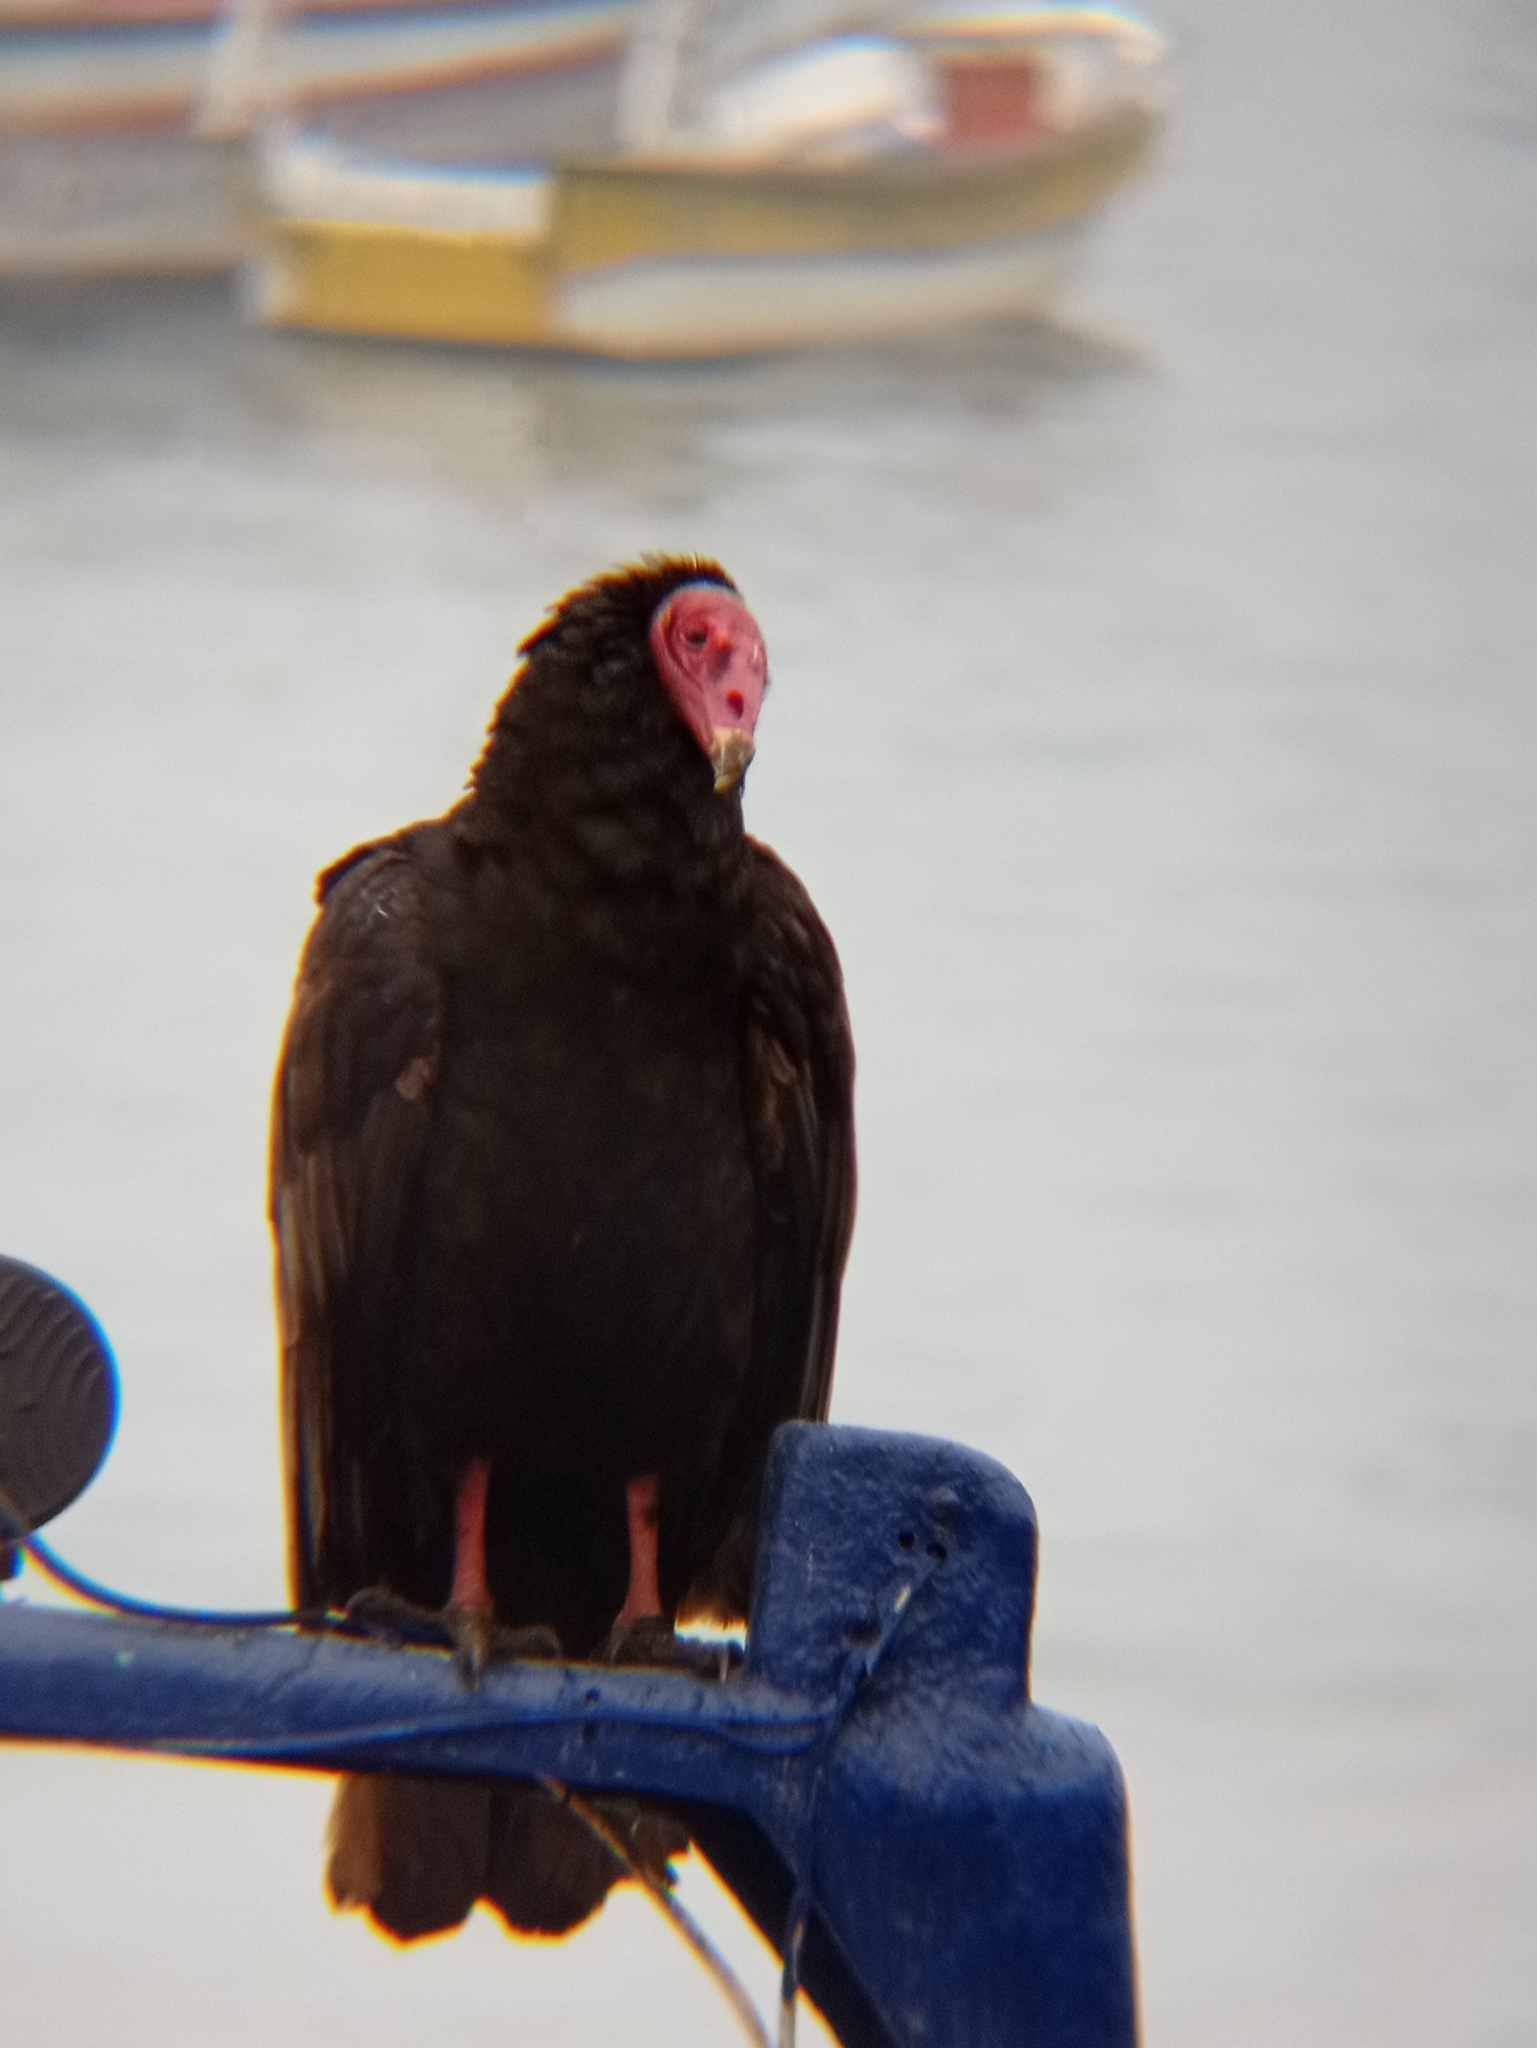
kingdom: Animalia
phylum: Chordata
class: Aves
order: Accipitriformes
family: Cathartidae
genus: Cathartes
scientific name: Cathartes aura
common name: Turkey vulture
